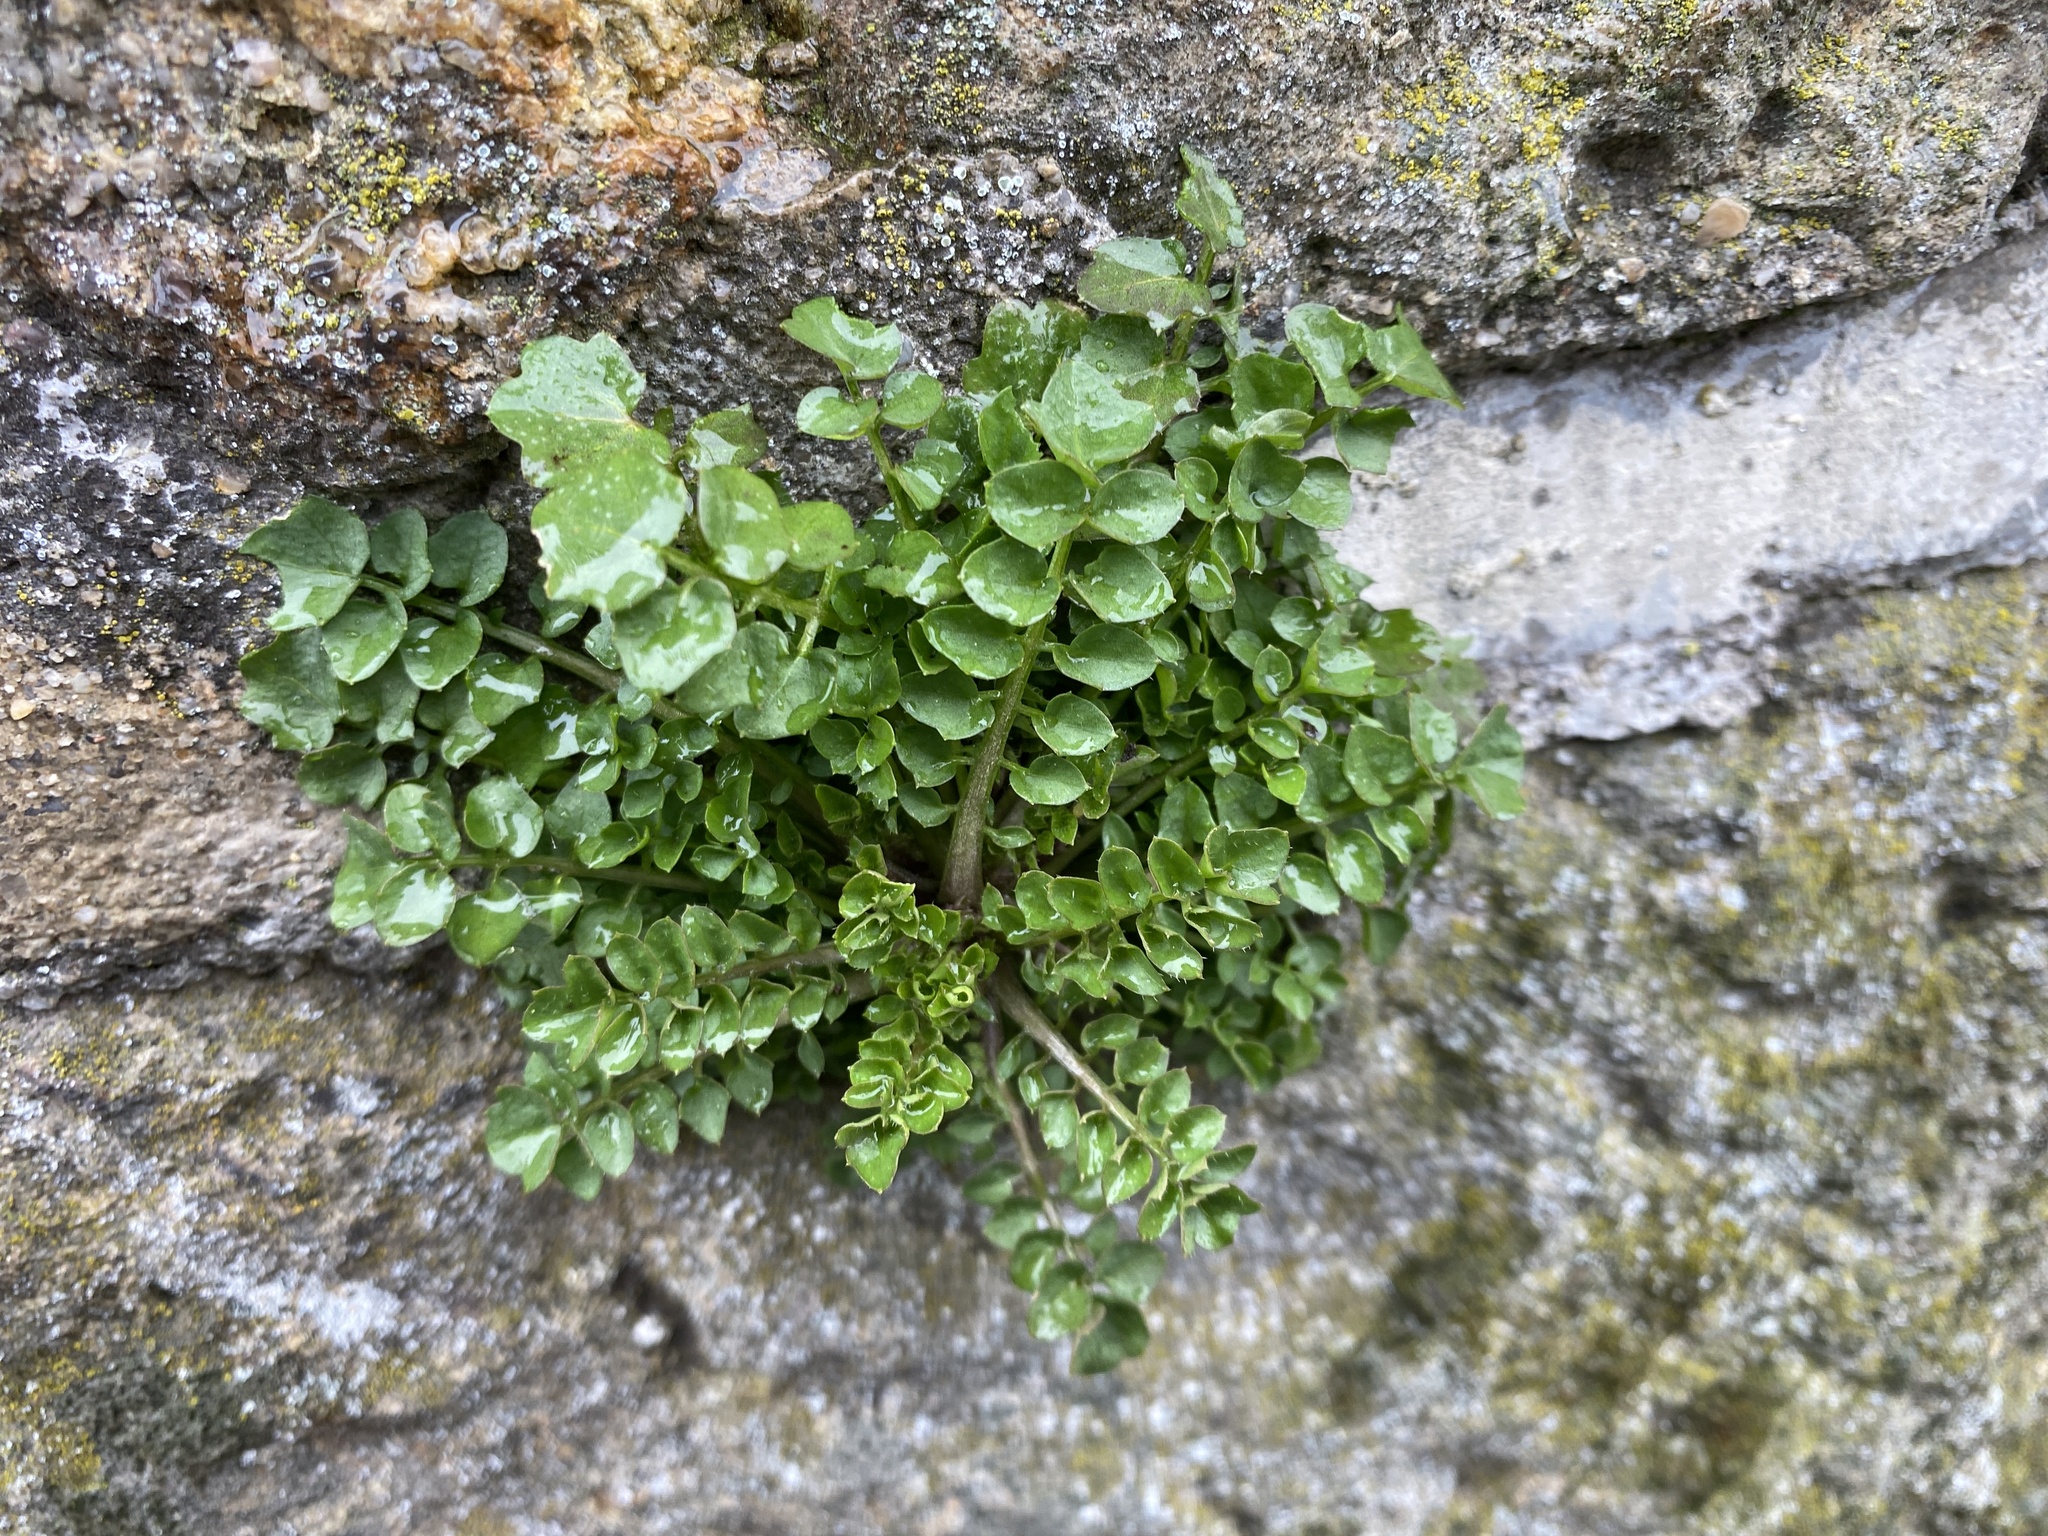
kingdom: Plantae
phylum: Tracheophyta
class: Magnoliopsida
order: Brassicales
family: Brassicaceae
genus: Cardamine
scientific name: Cardamine hirsuta
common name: Hairy bittercress
